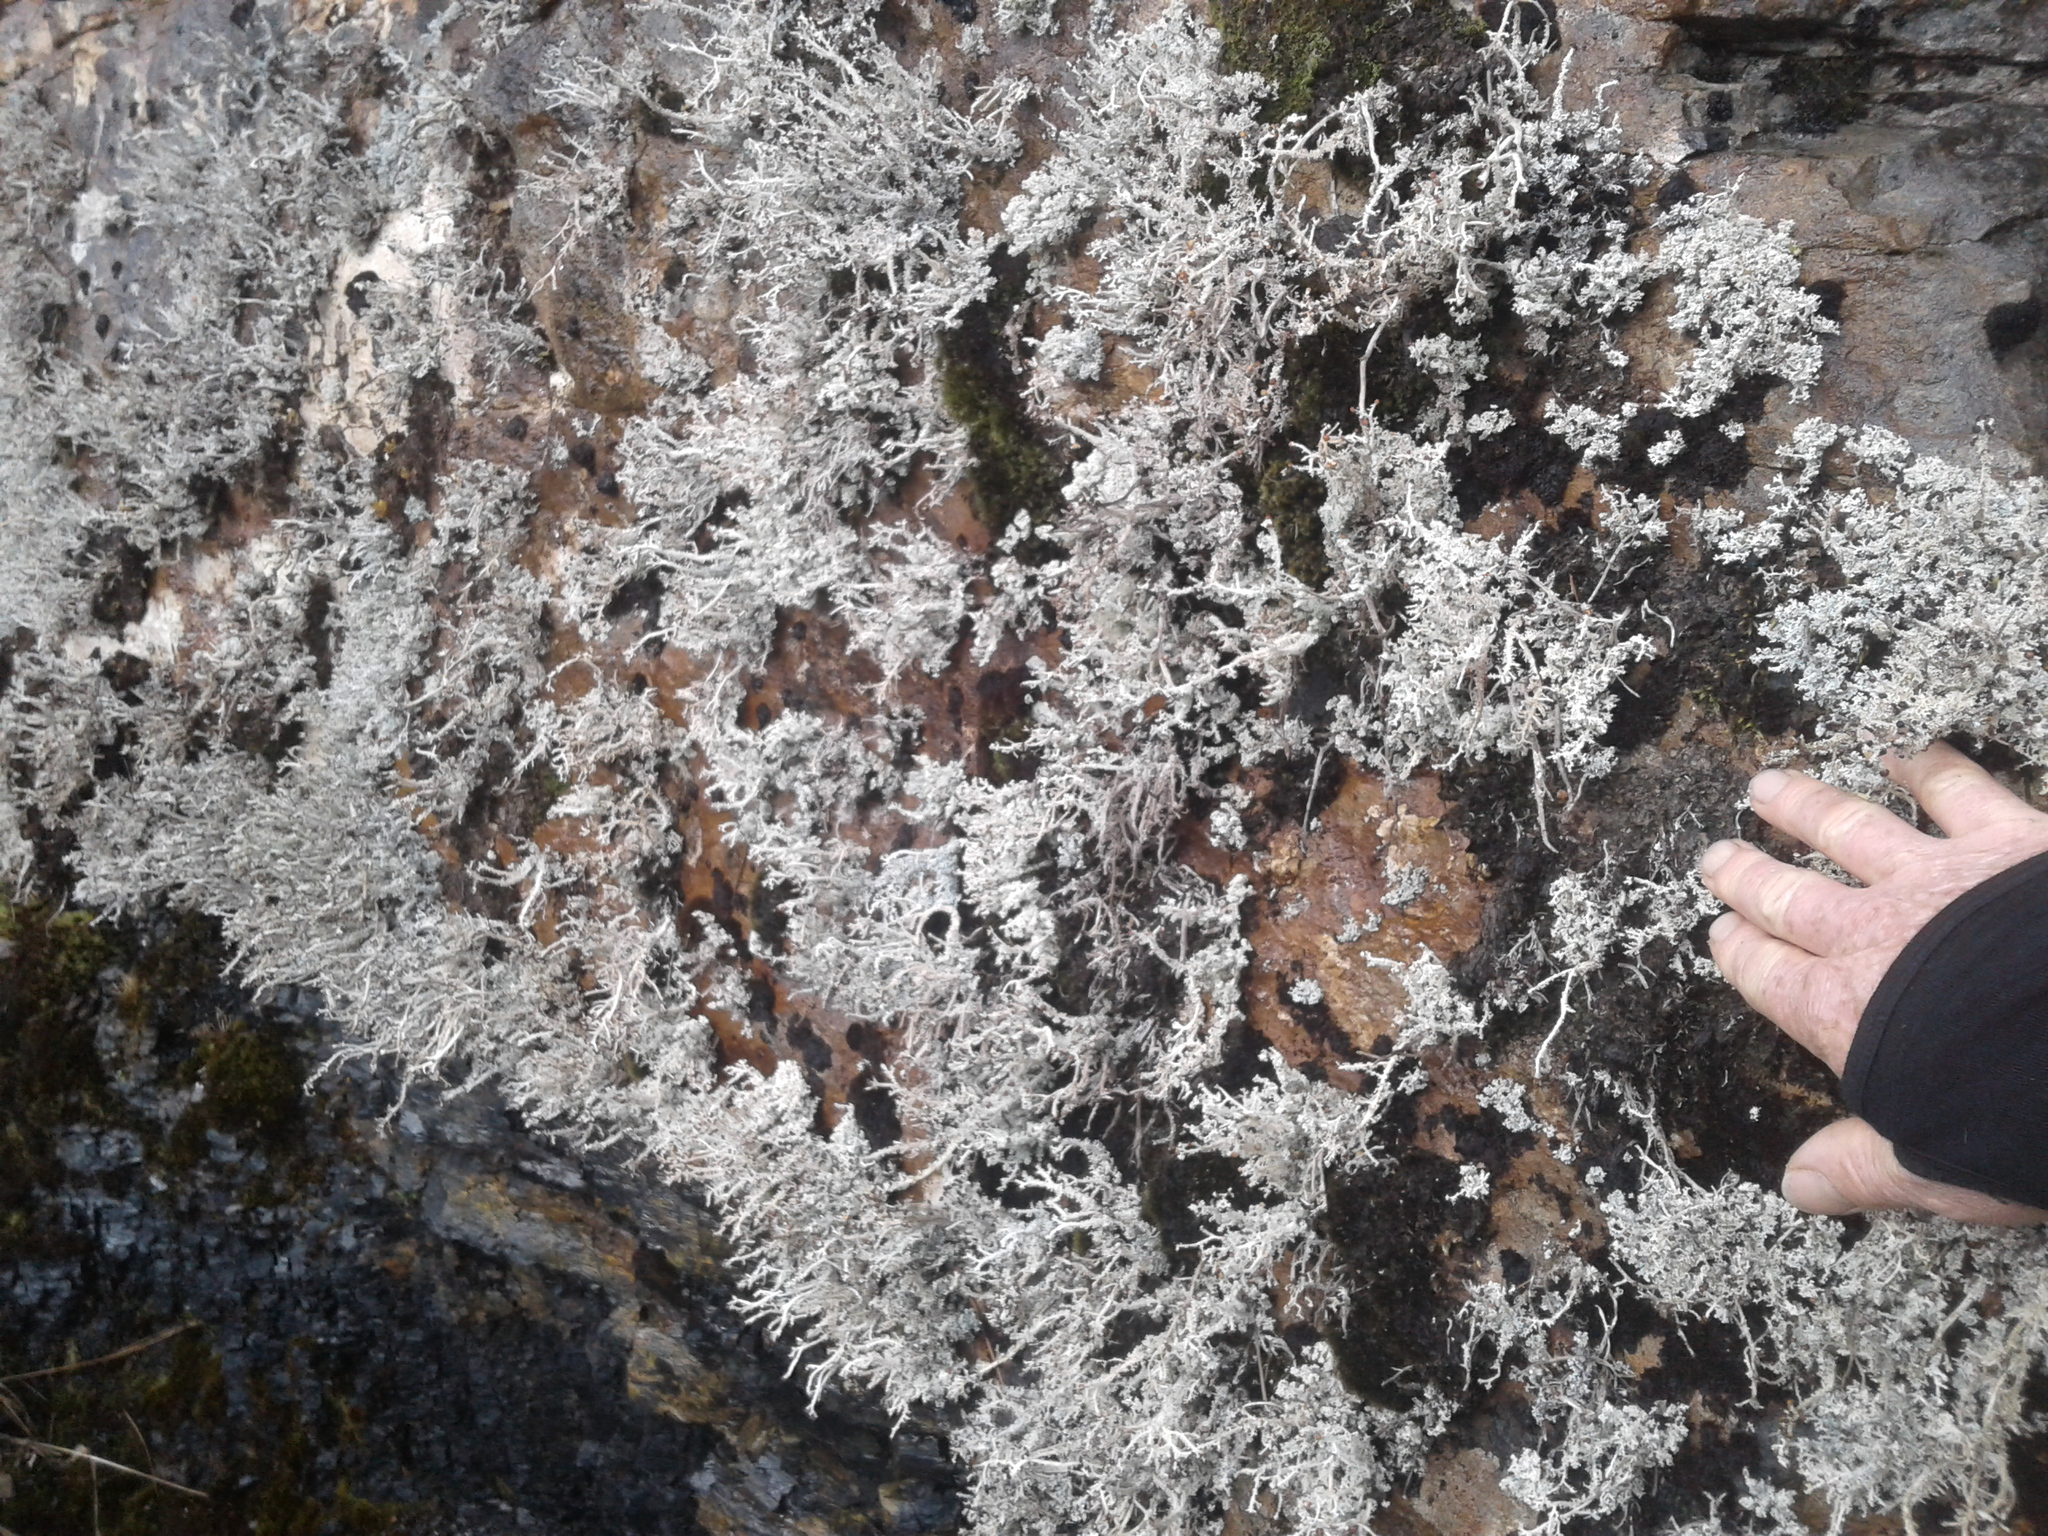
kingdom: Fungi
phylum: Ascomycota
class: Lecanoromycetes
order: Lecanorales
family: Stereocaulaceae
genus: Stereocaulon
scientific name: Stereocaulon ramulosum
